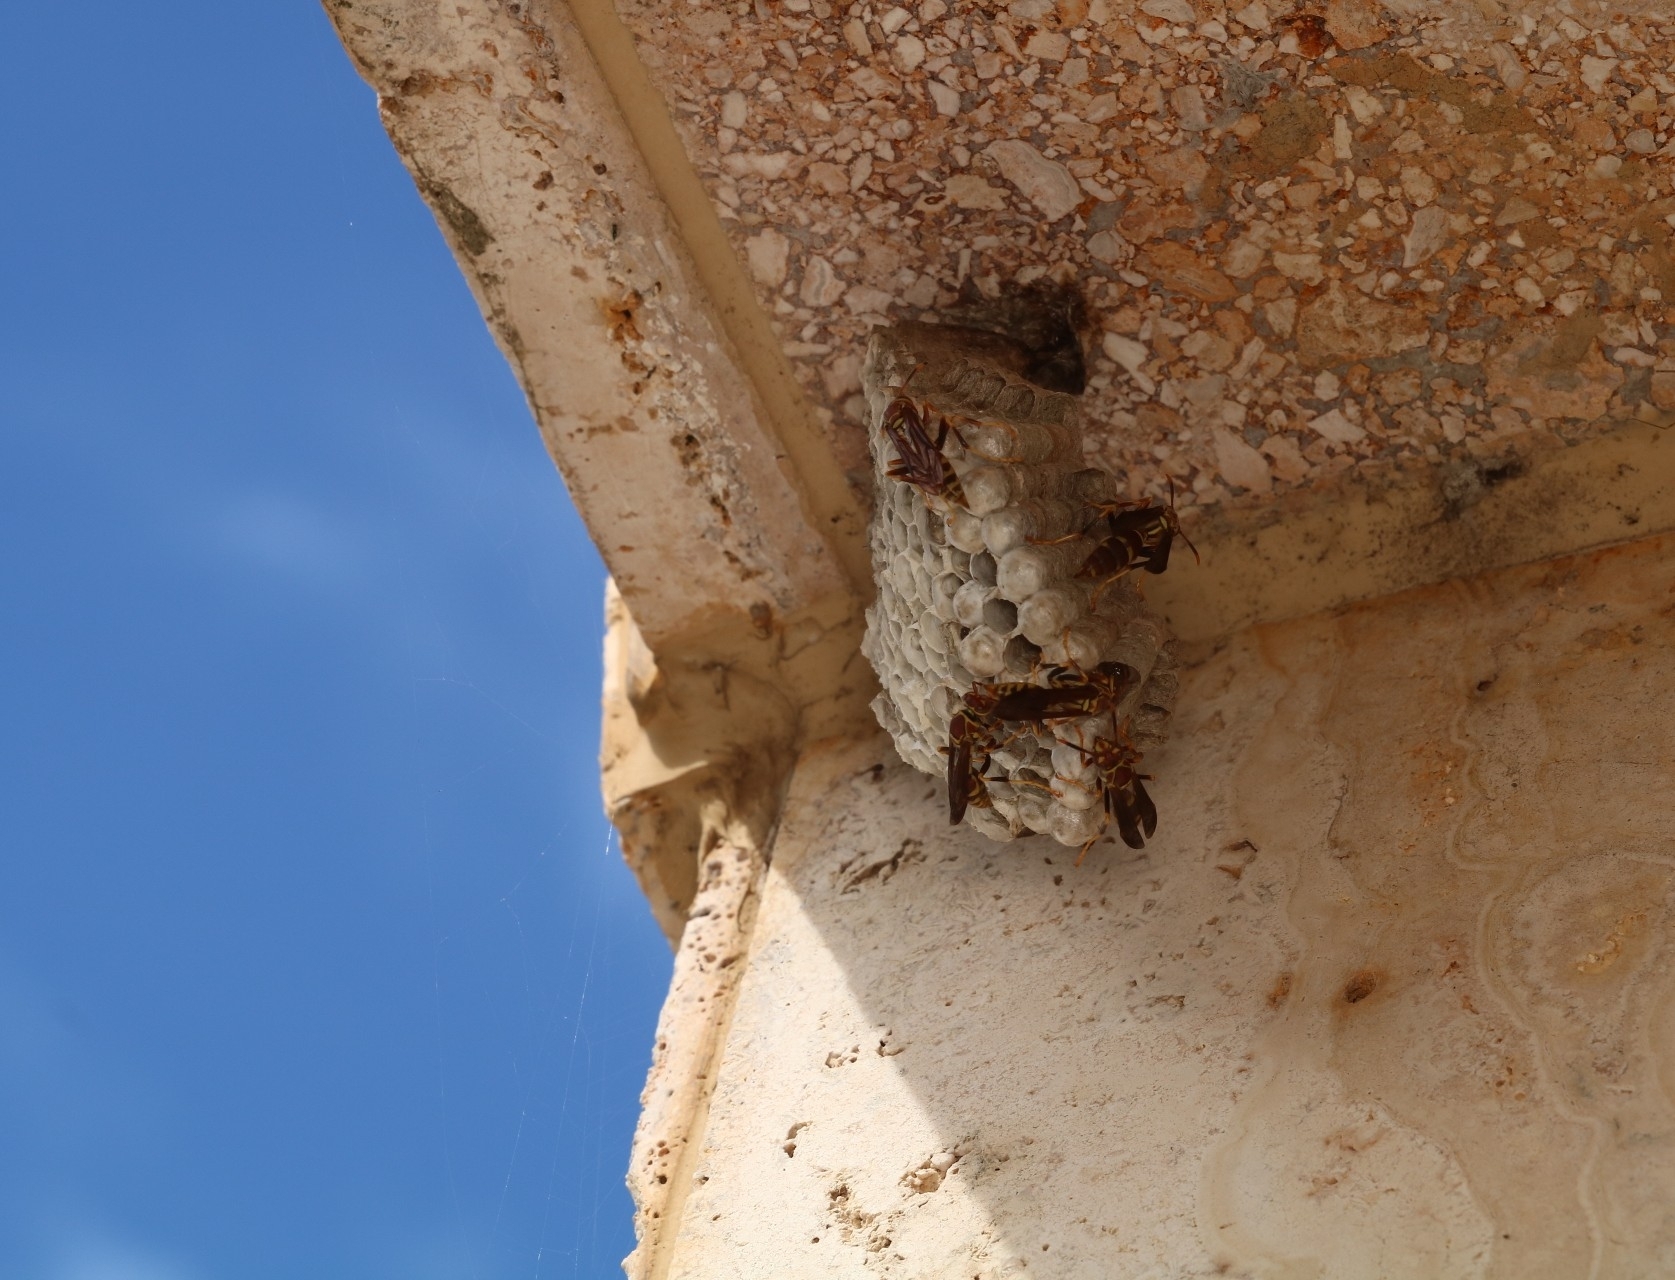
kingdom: Animalia
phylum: Arthropoda
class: Insecta
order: Hymenoptera
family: Eumenidae
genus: Polistes
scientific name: Polistes exclamans
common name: Paper wasp
